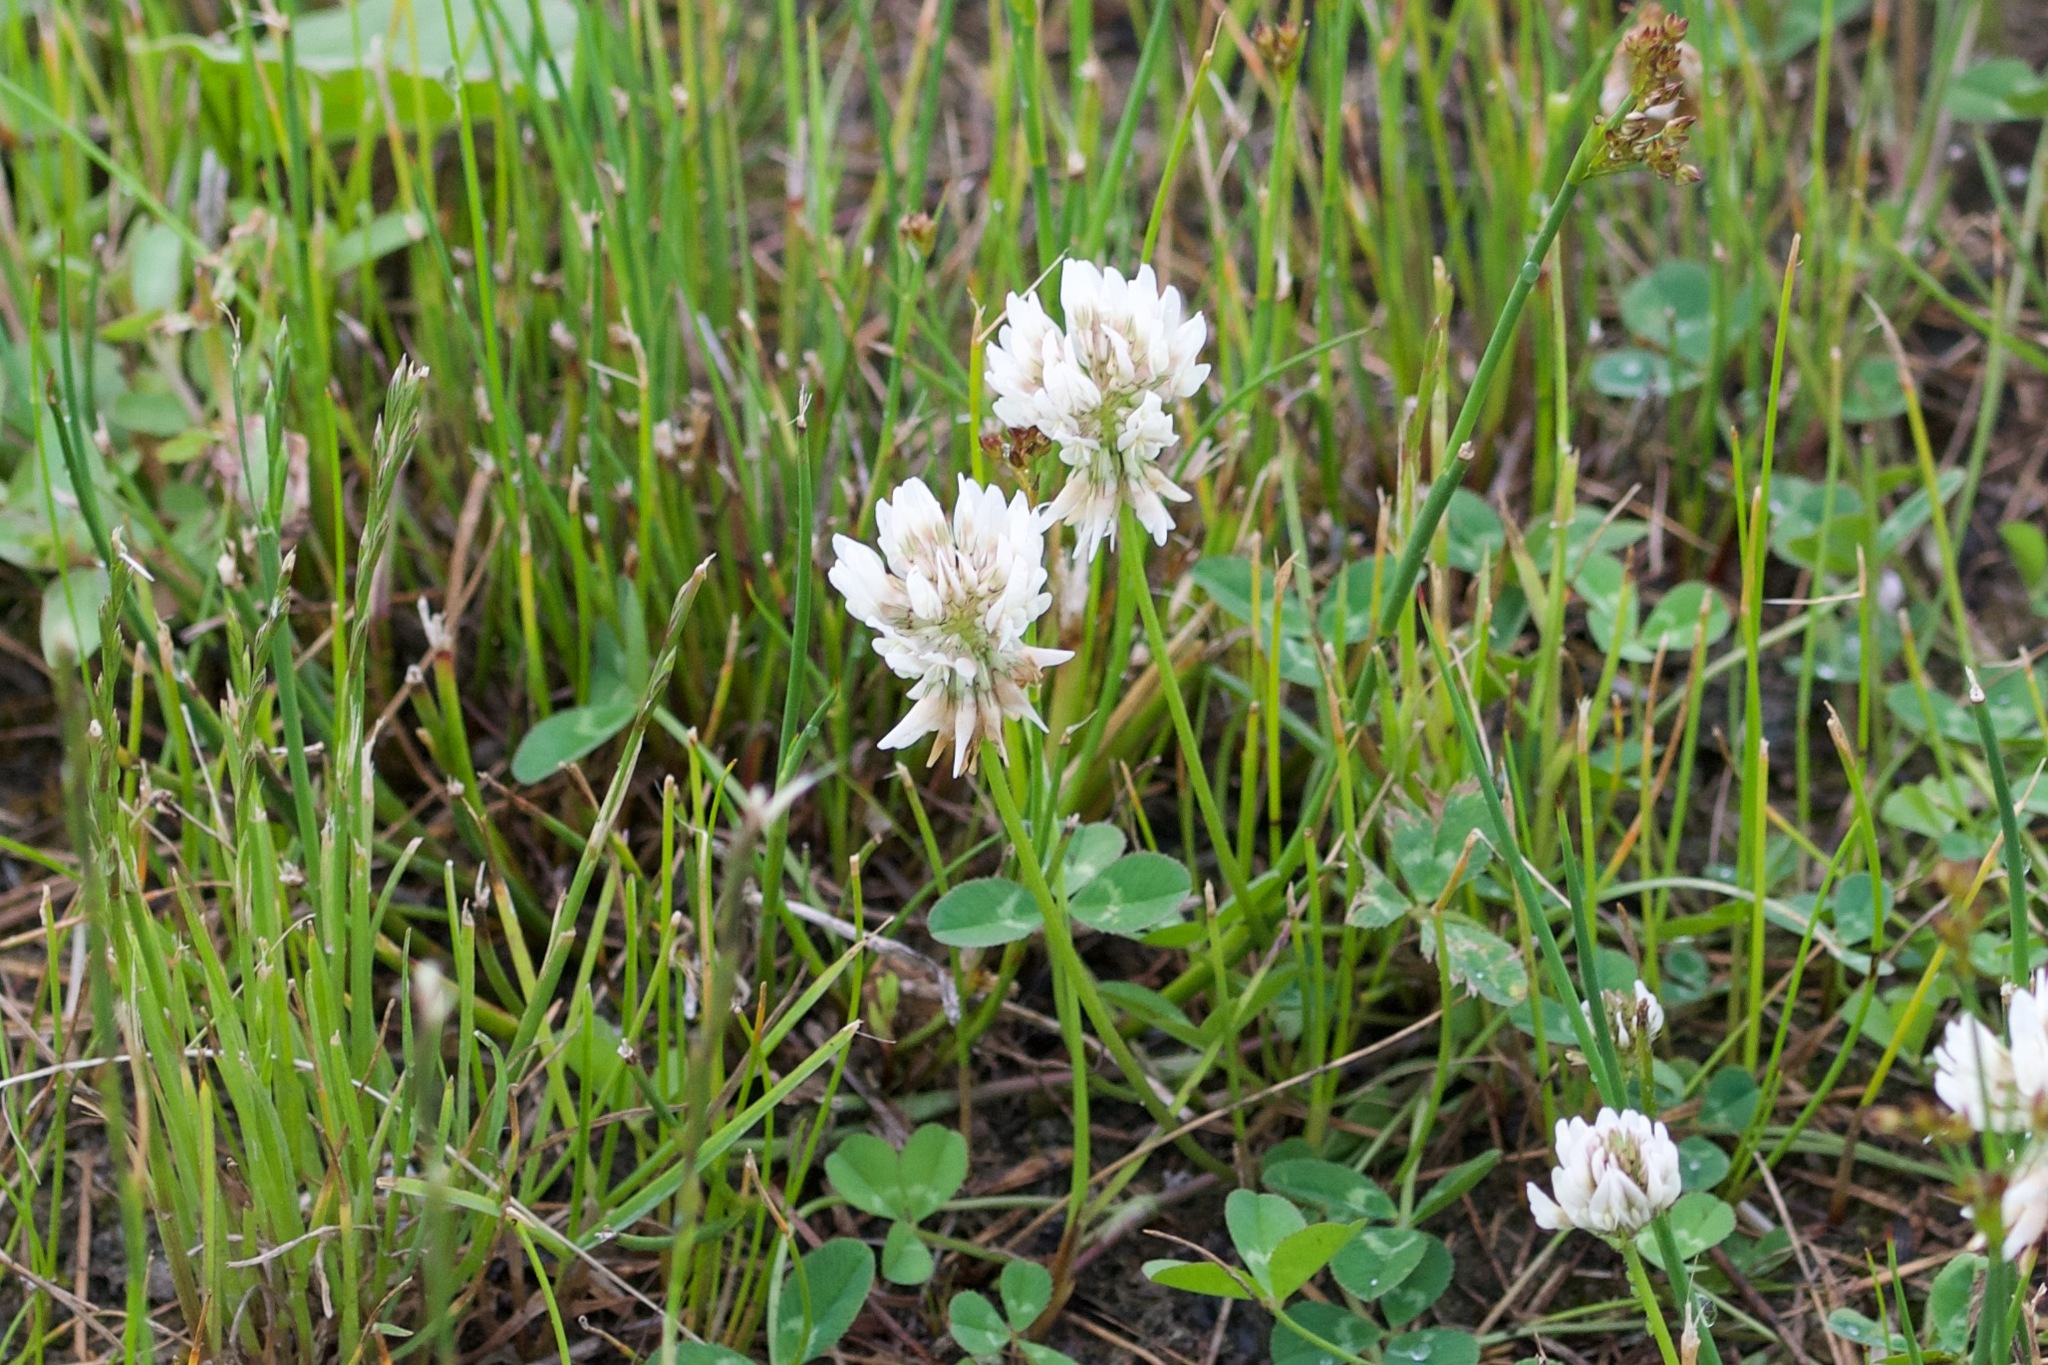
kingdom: Plantae
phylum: Tracheophyta
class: Magnoliopsida
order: Fabales
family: Fabaceae
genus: Trifolium
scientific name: Trifolium repens
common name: White clover
